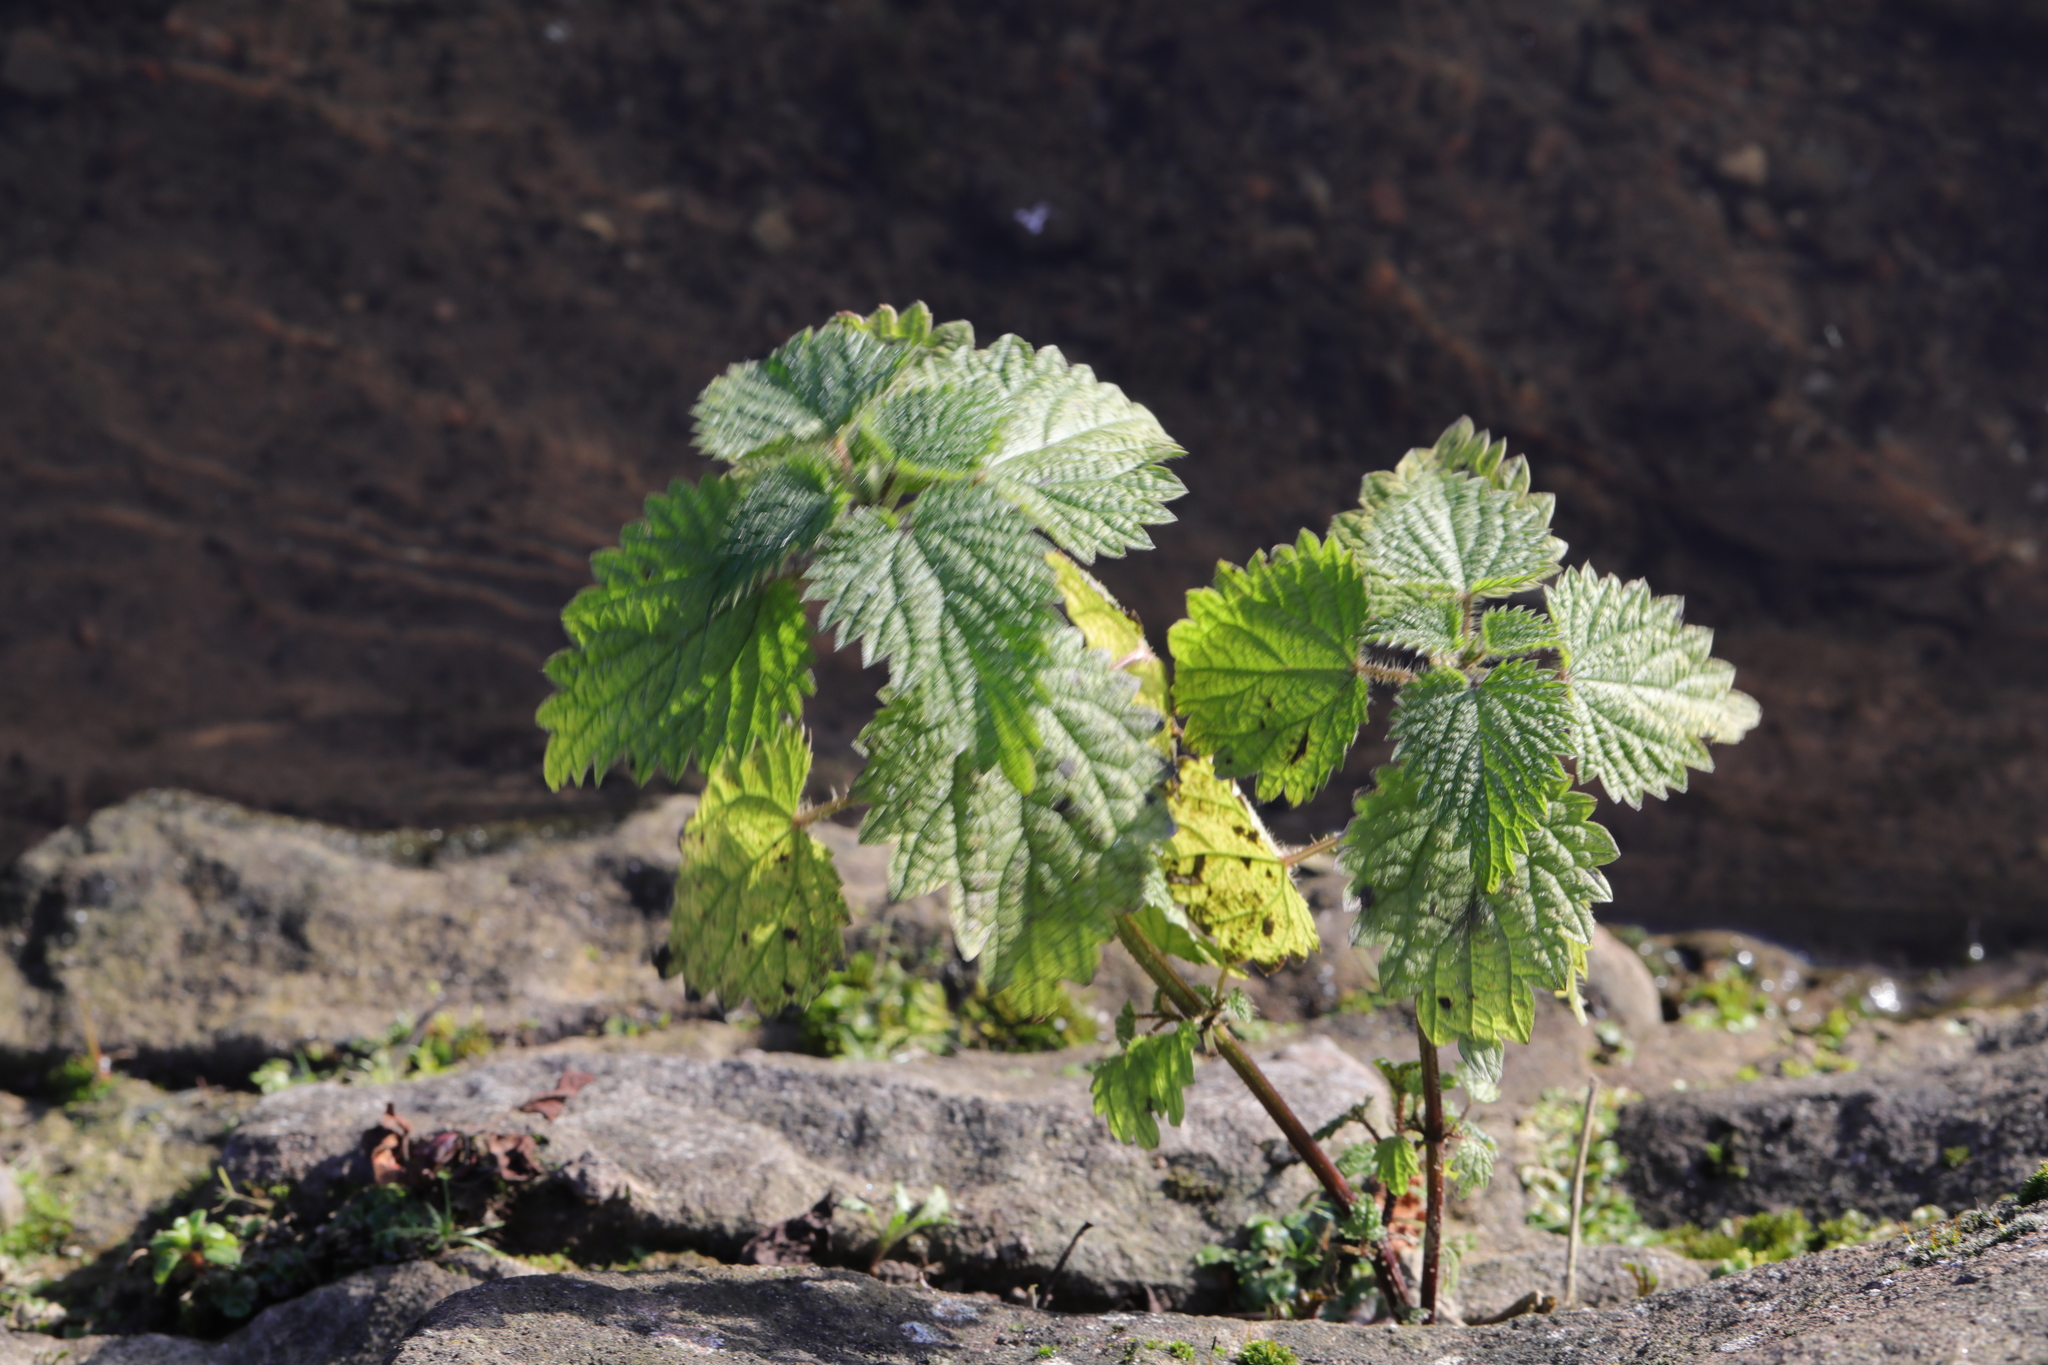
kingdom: Plantae
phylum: Tracheophyta
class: Magnoliopsida
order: Rosales
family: Urticaceae
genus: Urtica
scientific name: Urtica dioica
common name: Common nettle
